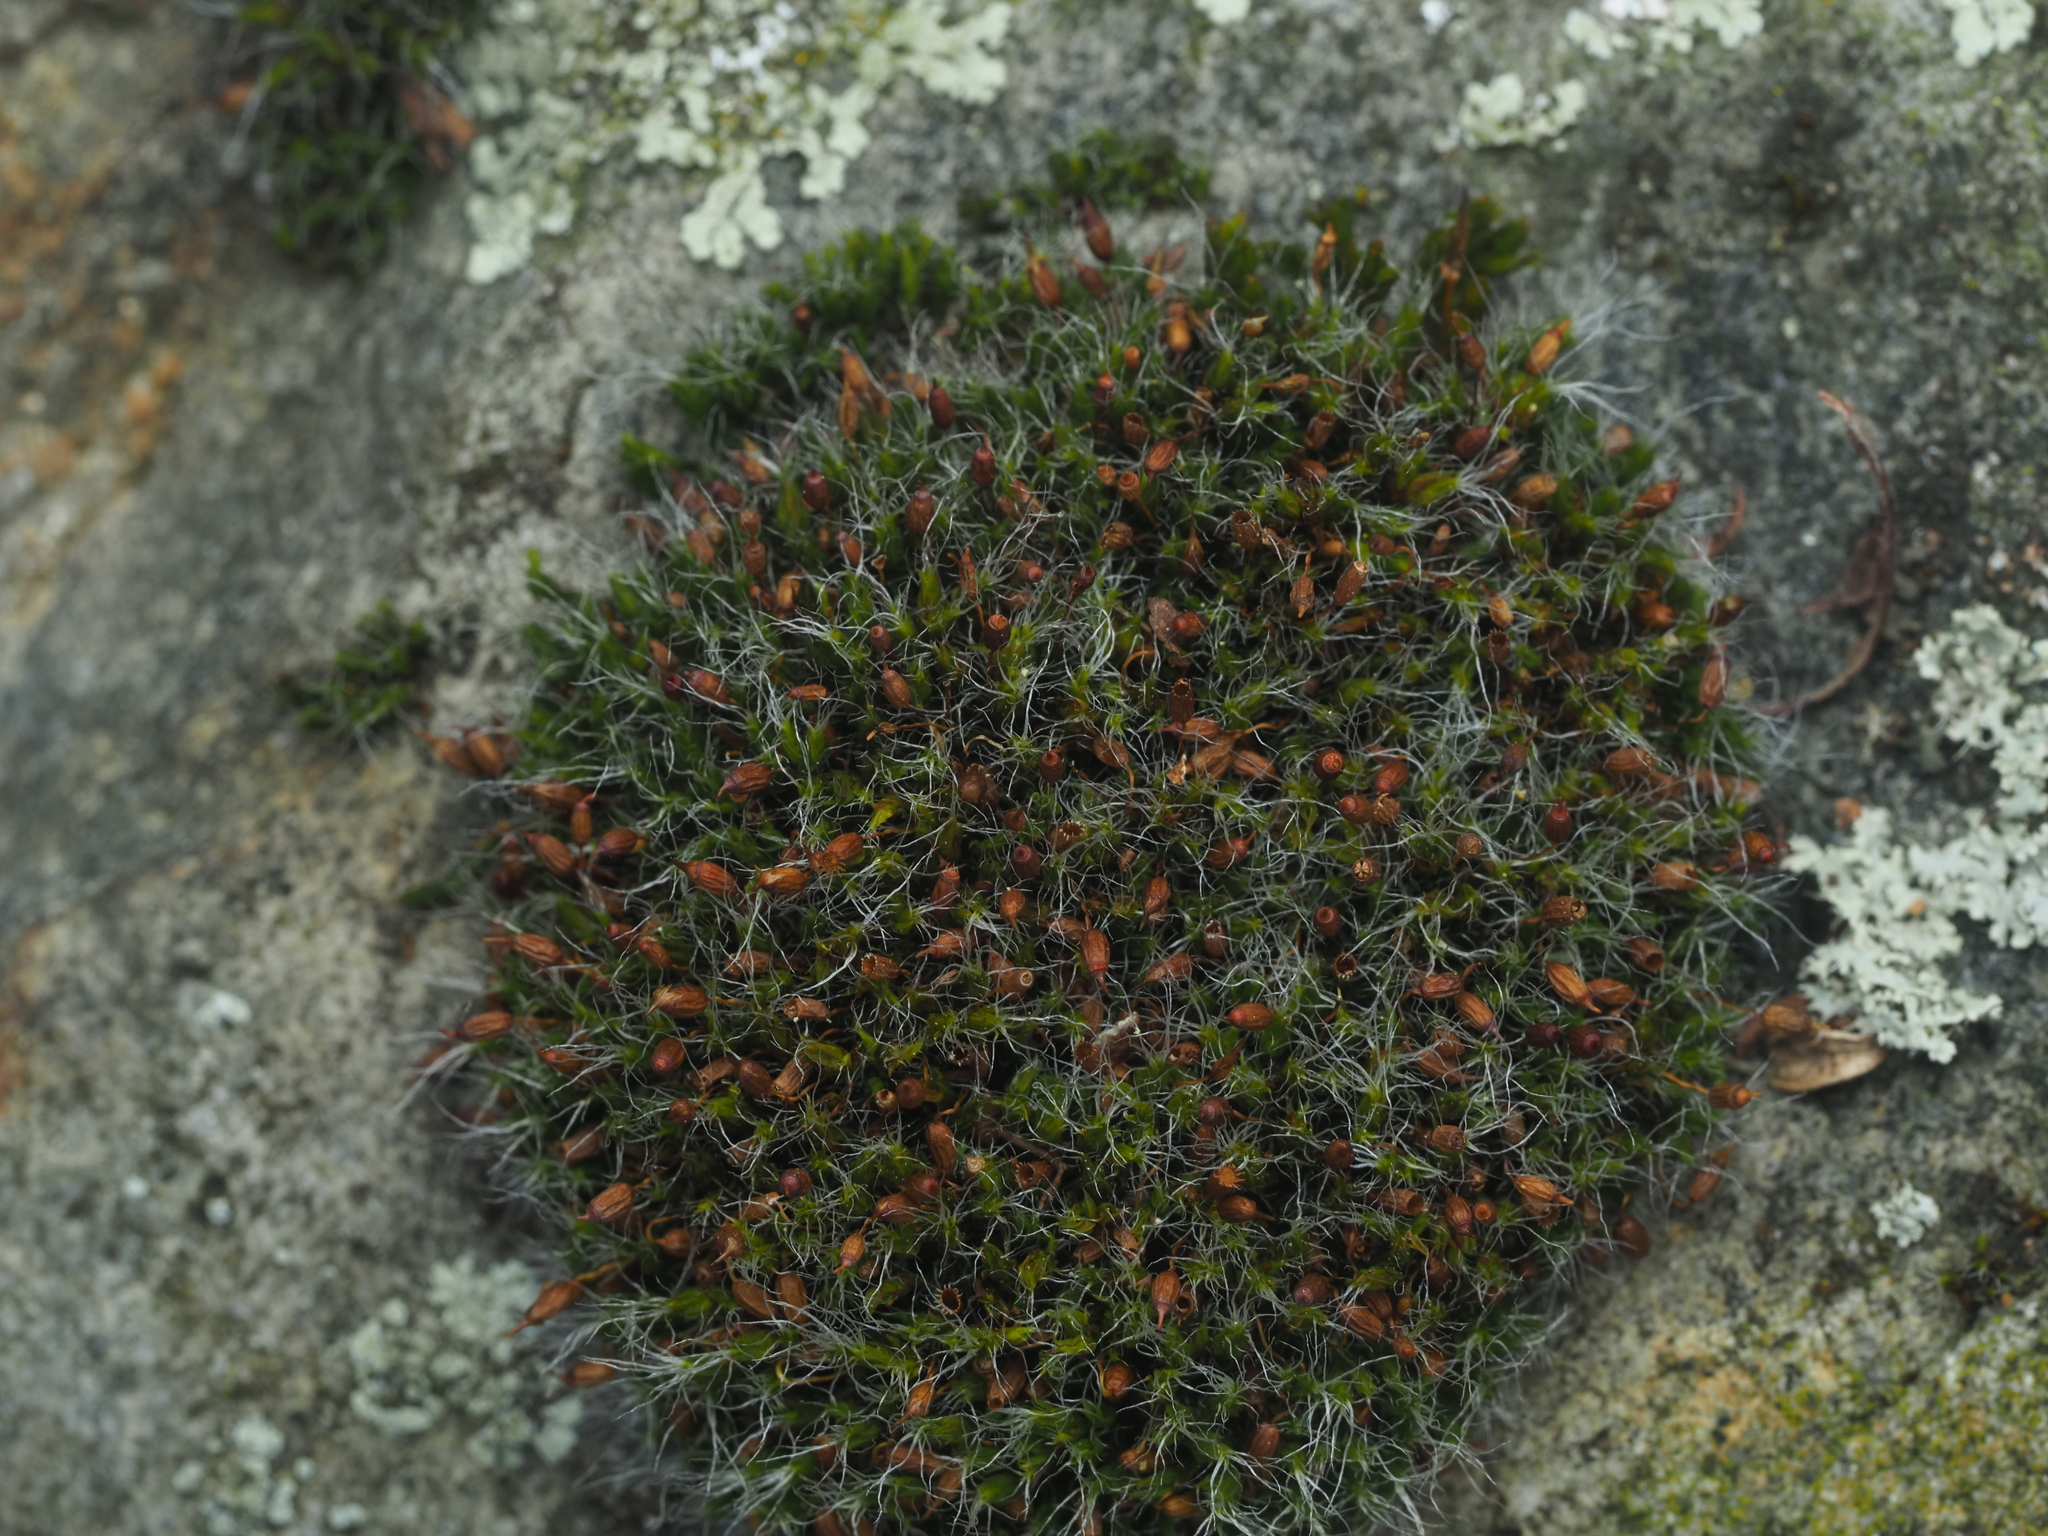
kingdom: Plantae
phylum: Bryophyta
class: Bryopsida
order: Grimmiales
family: Grimmiaceae
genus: Grimmia
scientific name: Grimmia pulvinata
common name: Grey-cushioned grimmia
